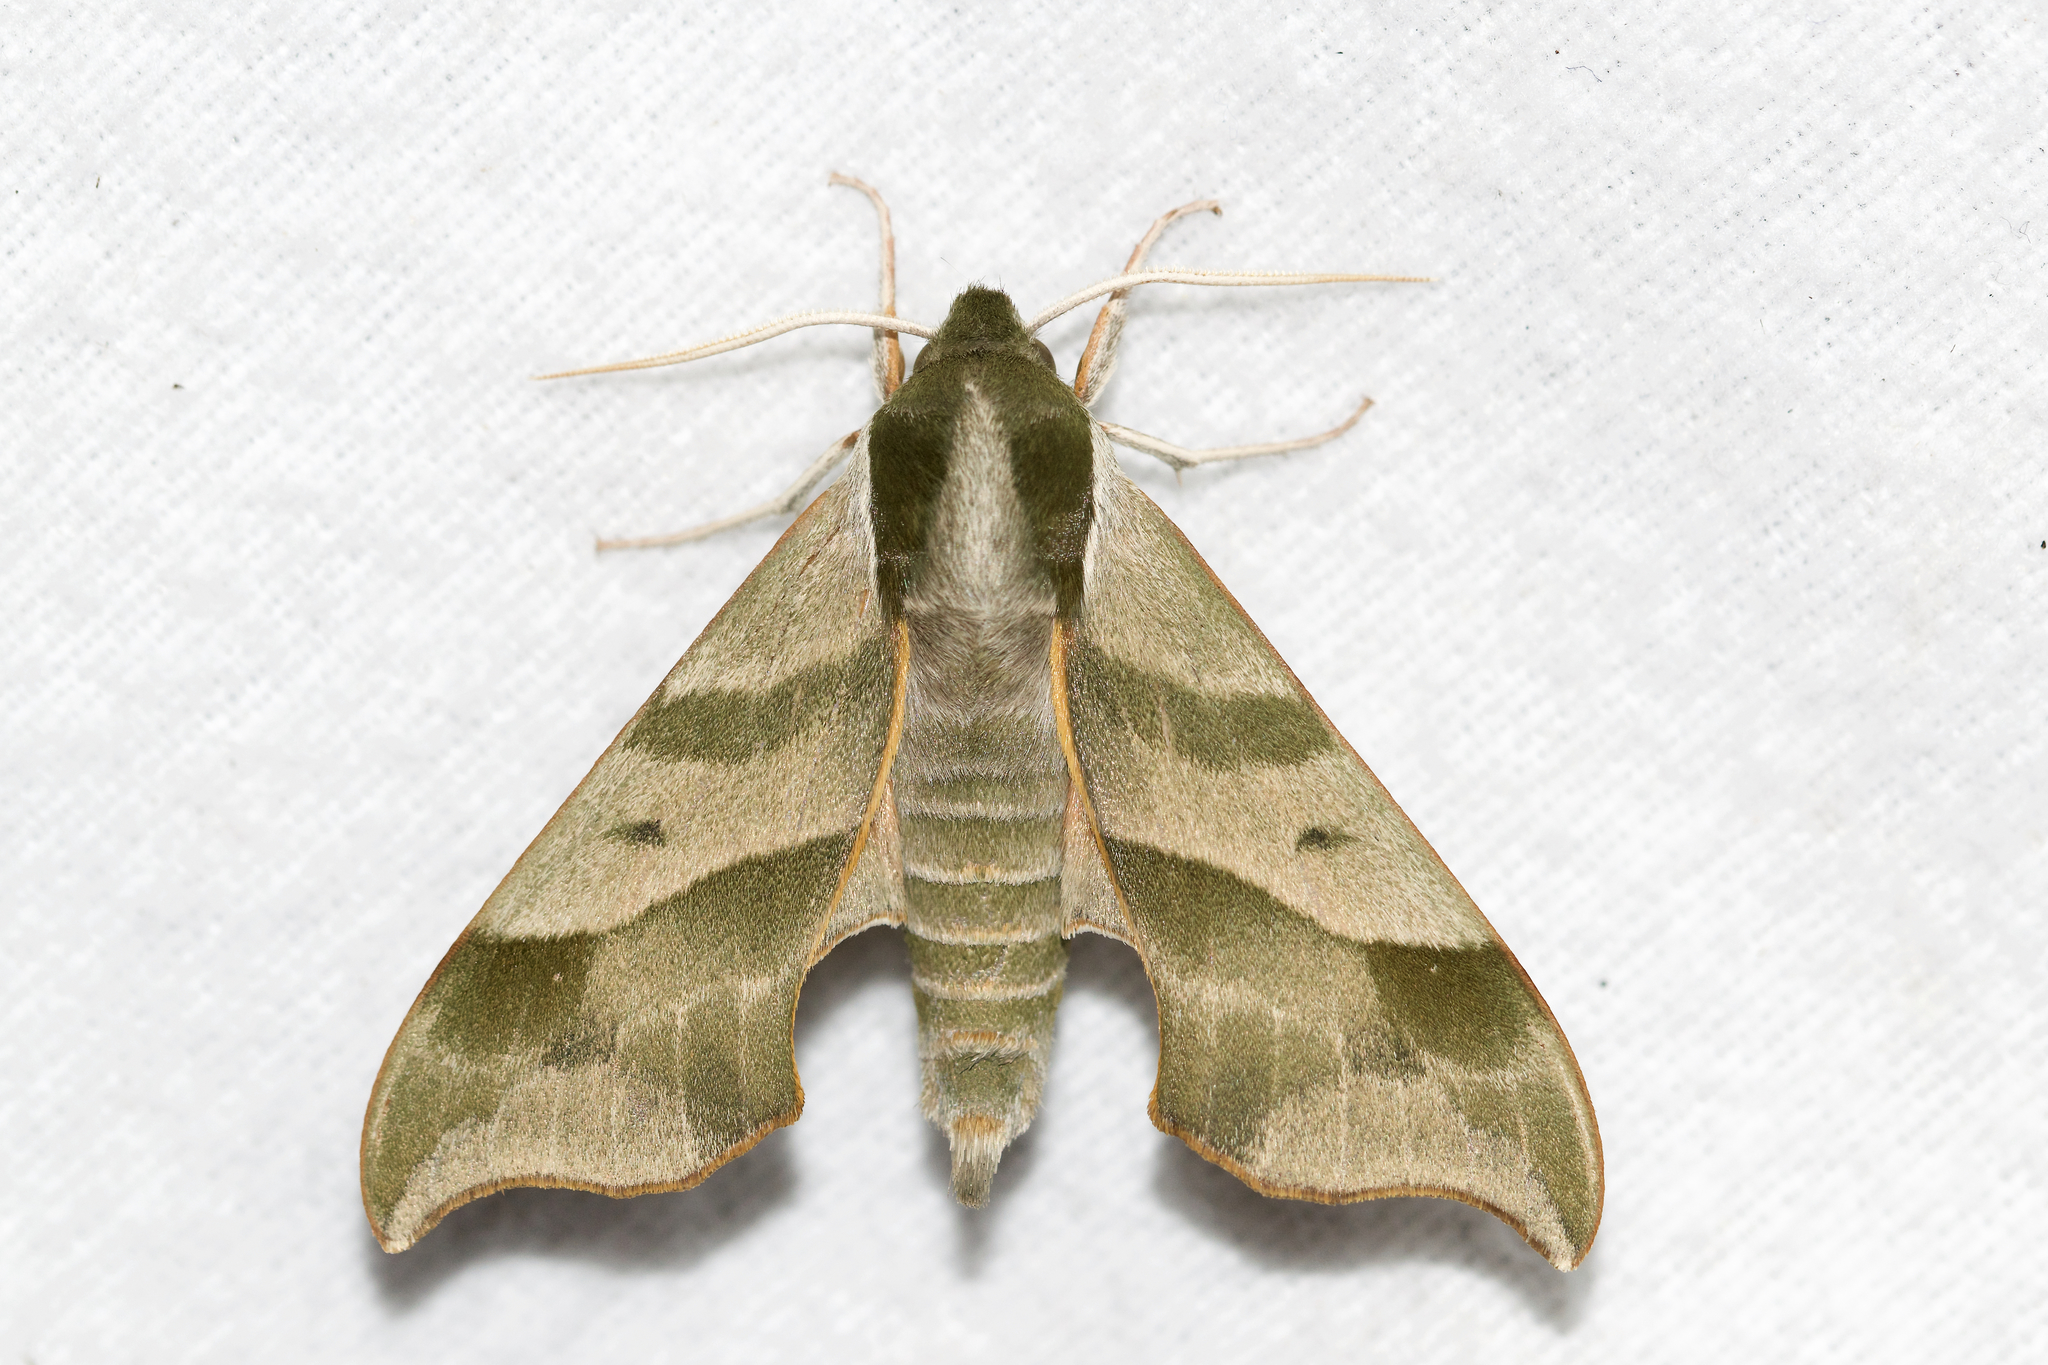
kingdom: Animalia
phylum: Arthropoda
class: Insecta
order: Lepidoptera
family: Sphingidae
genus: Darapsa
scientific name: Darapsa myron
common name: Hog sphinx
